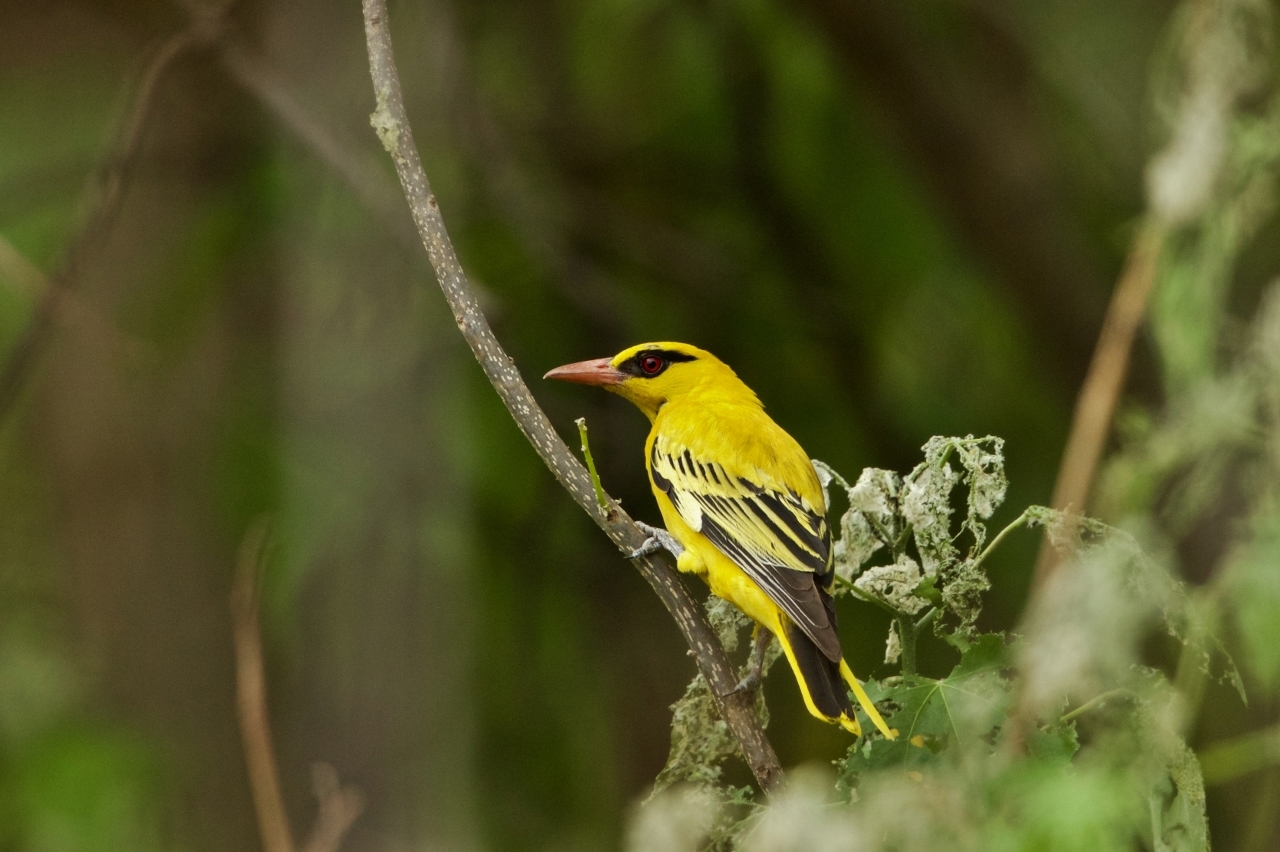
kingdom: Animalia
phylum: Chordata
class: Aves
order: Passeriformes
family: Oriolidae
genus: Oriolus
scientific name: Oriolus auratus
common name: African golden oriole
